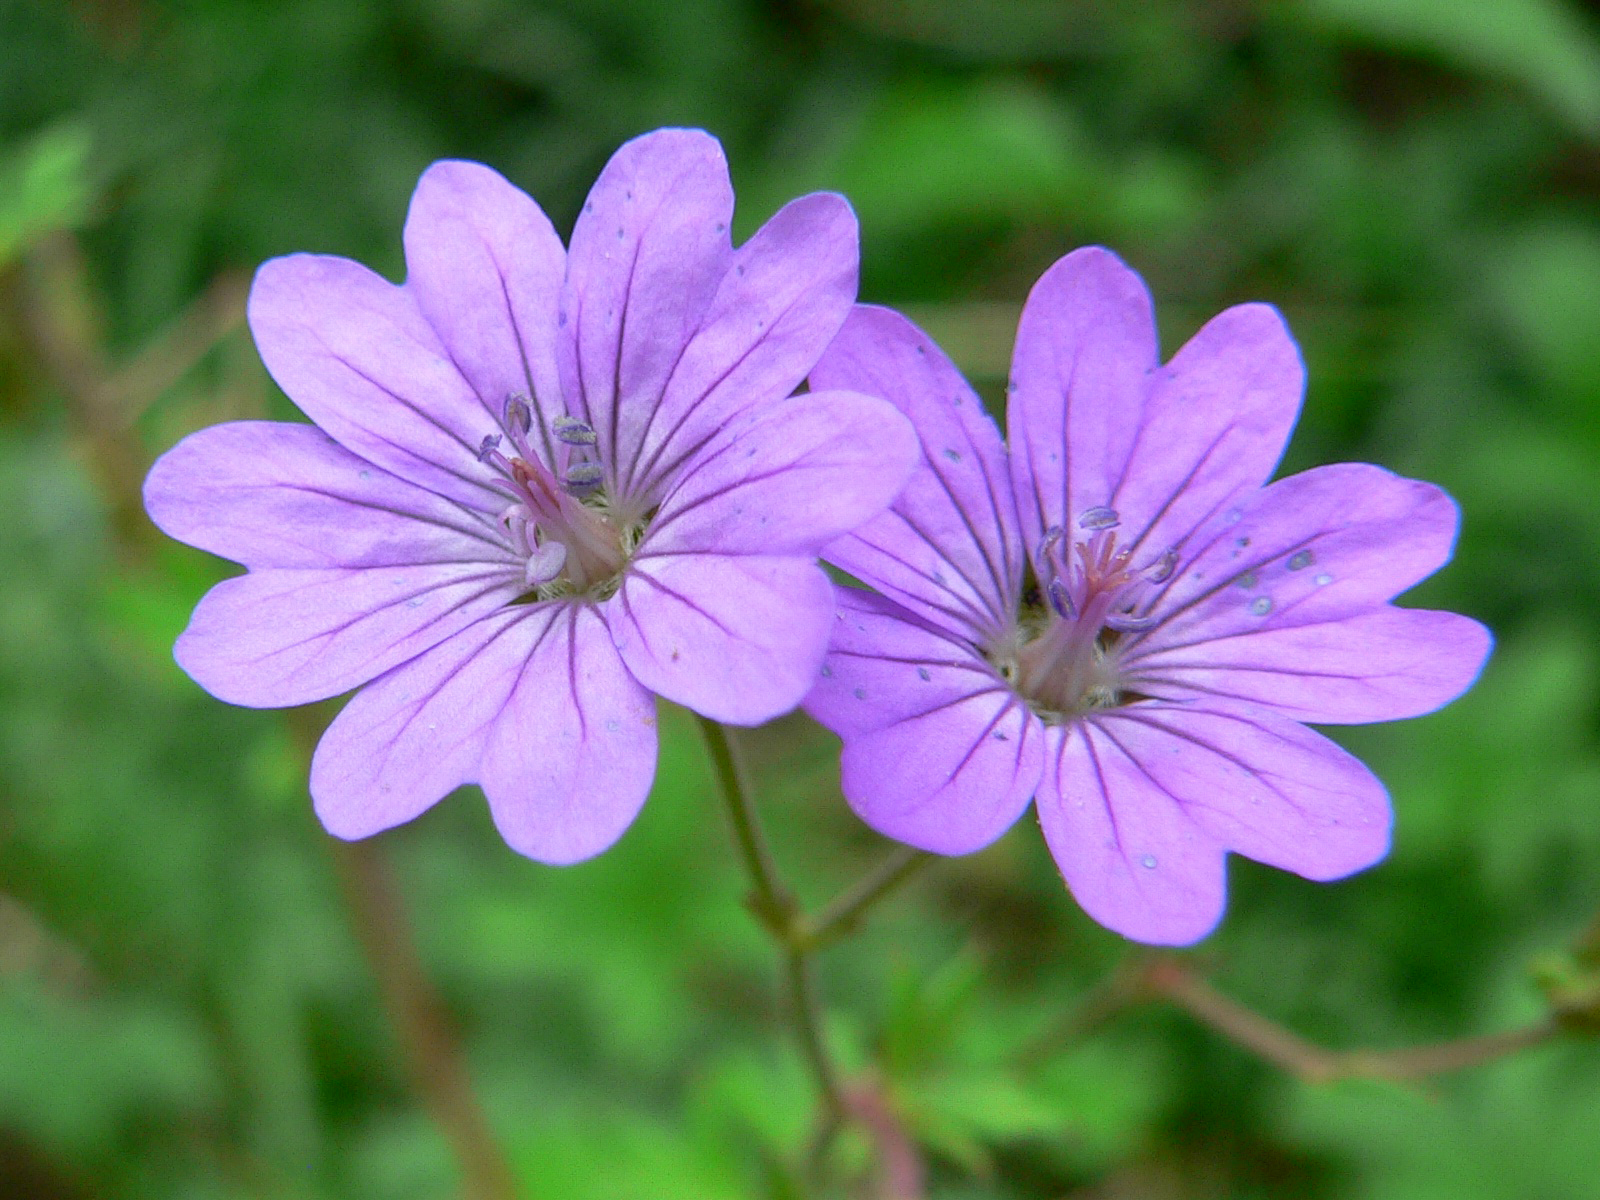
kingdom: Plantae
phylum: Tracheophyta
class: Magnoliopsida
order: Geraniales
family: Geraniaceae
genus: Geranium
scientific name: Geranium pyrenaicum
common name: Hedgerow crane's-bill
